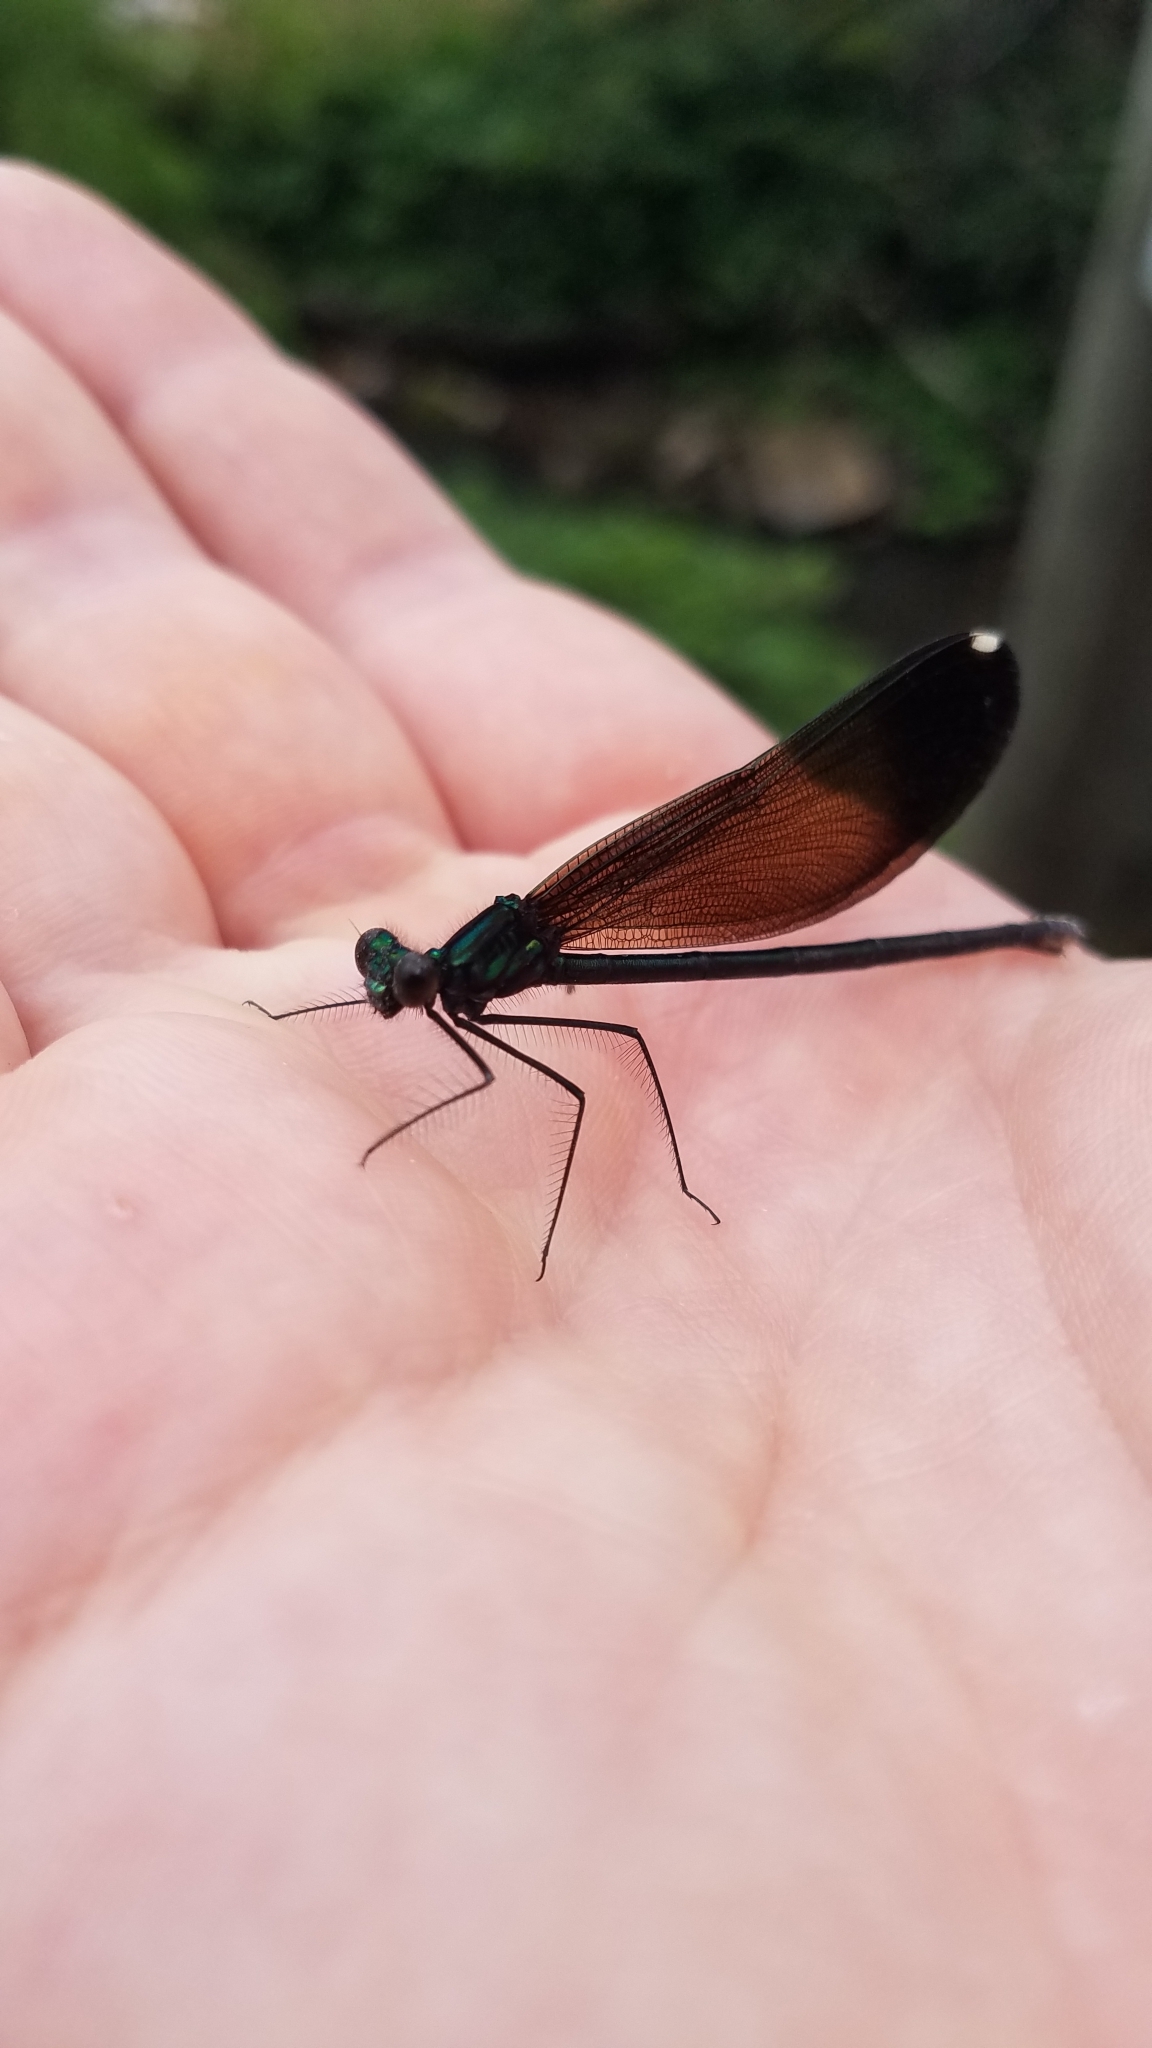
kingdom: Animalia
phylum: Arthropoda
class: Insecta
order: Odonata
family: Calopterygidae
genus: Calopteryx
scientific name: Calopteryx maculata
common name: Ebony jewelwing
